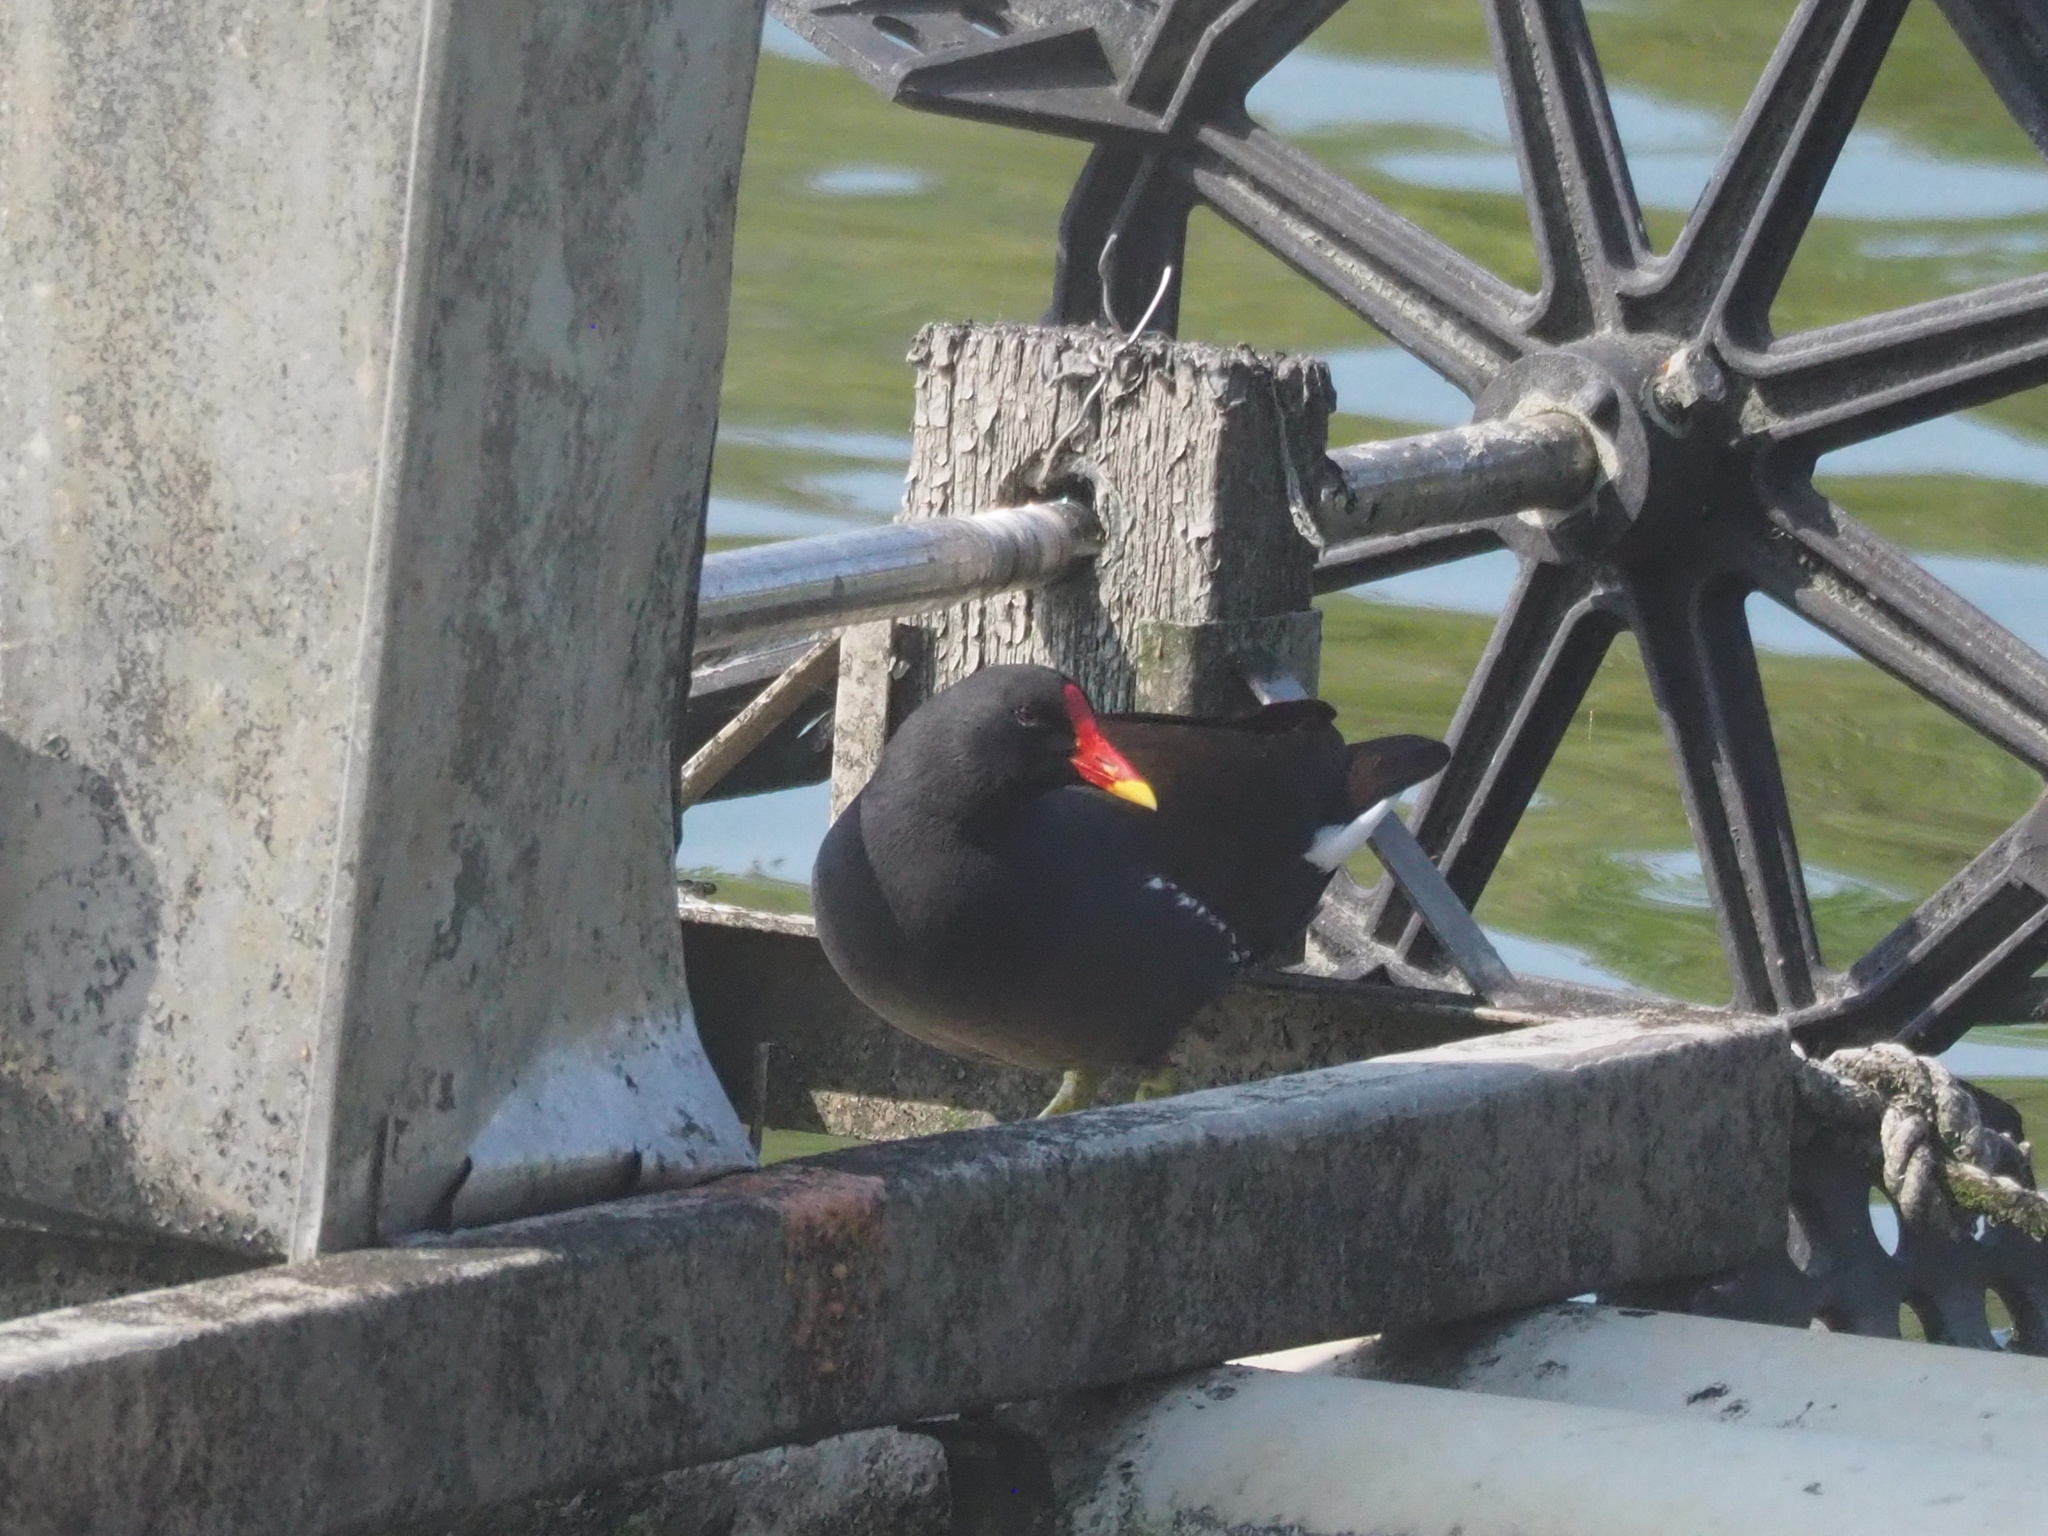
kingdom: Animalia
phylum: Chordata
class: Aves
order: Gruiformes
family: Rallidae
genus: Gallinula
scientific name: Gallinula chloropus
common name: Common moorhen
